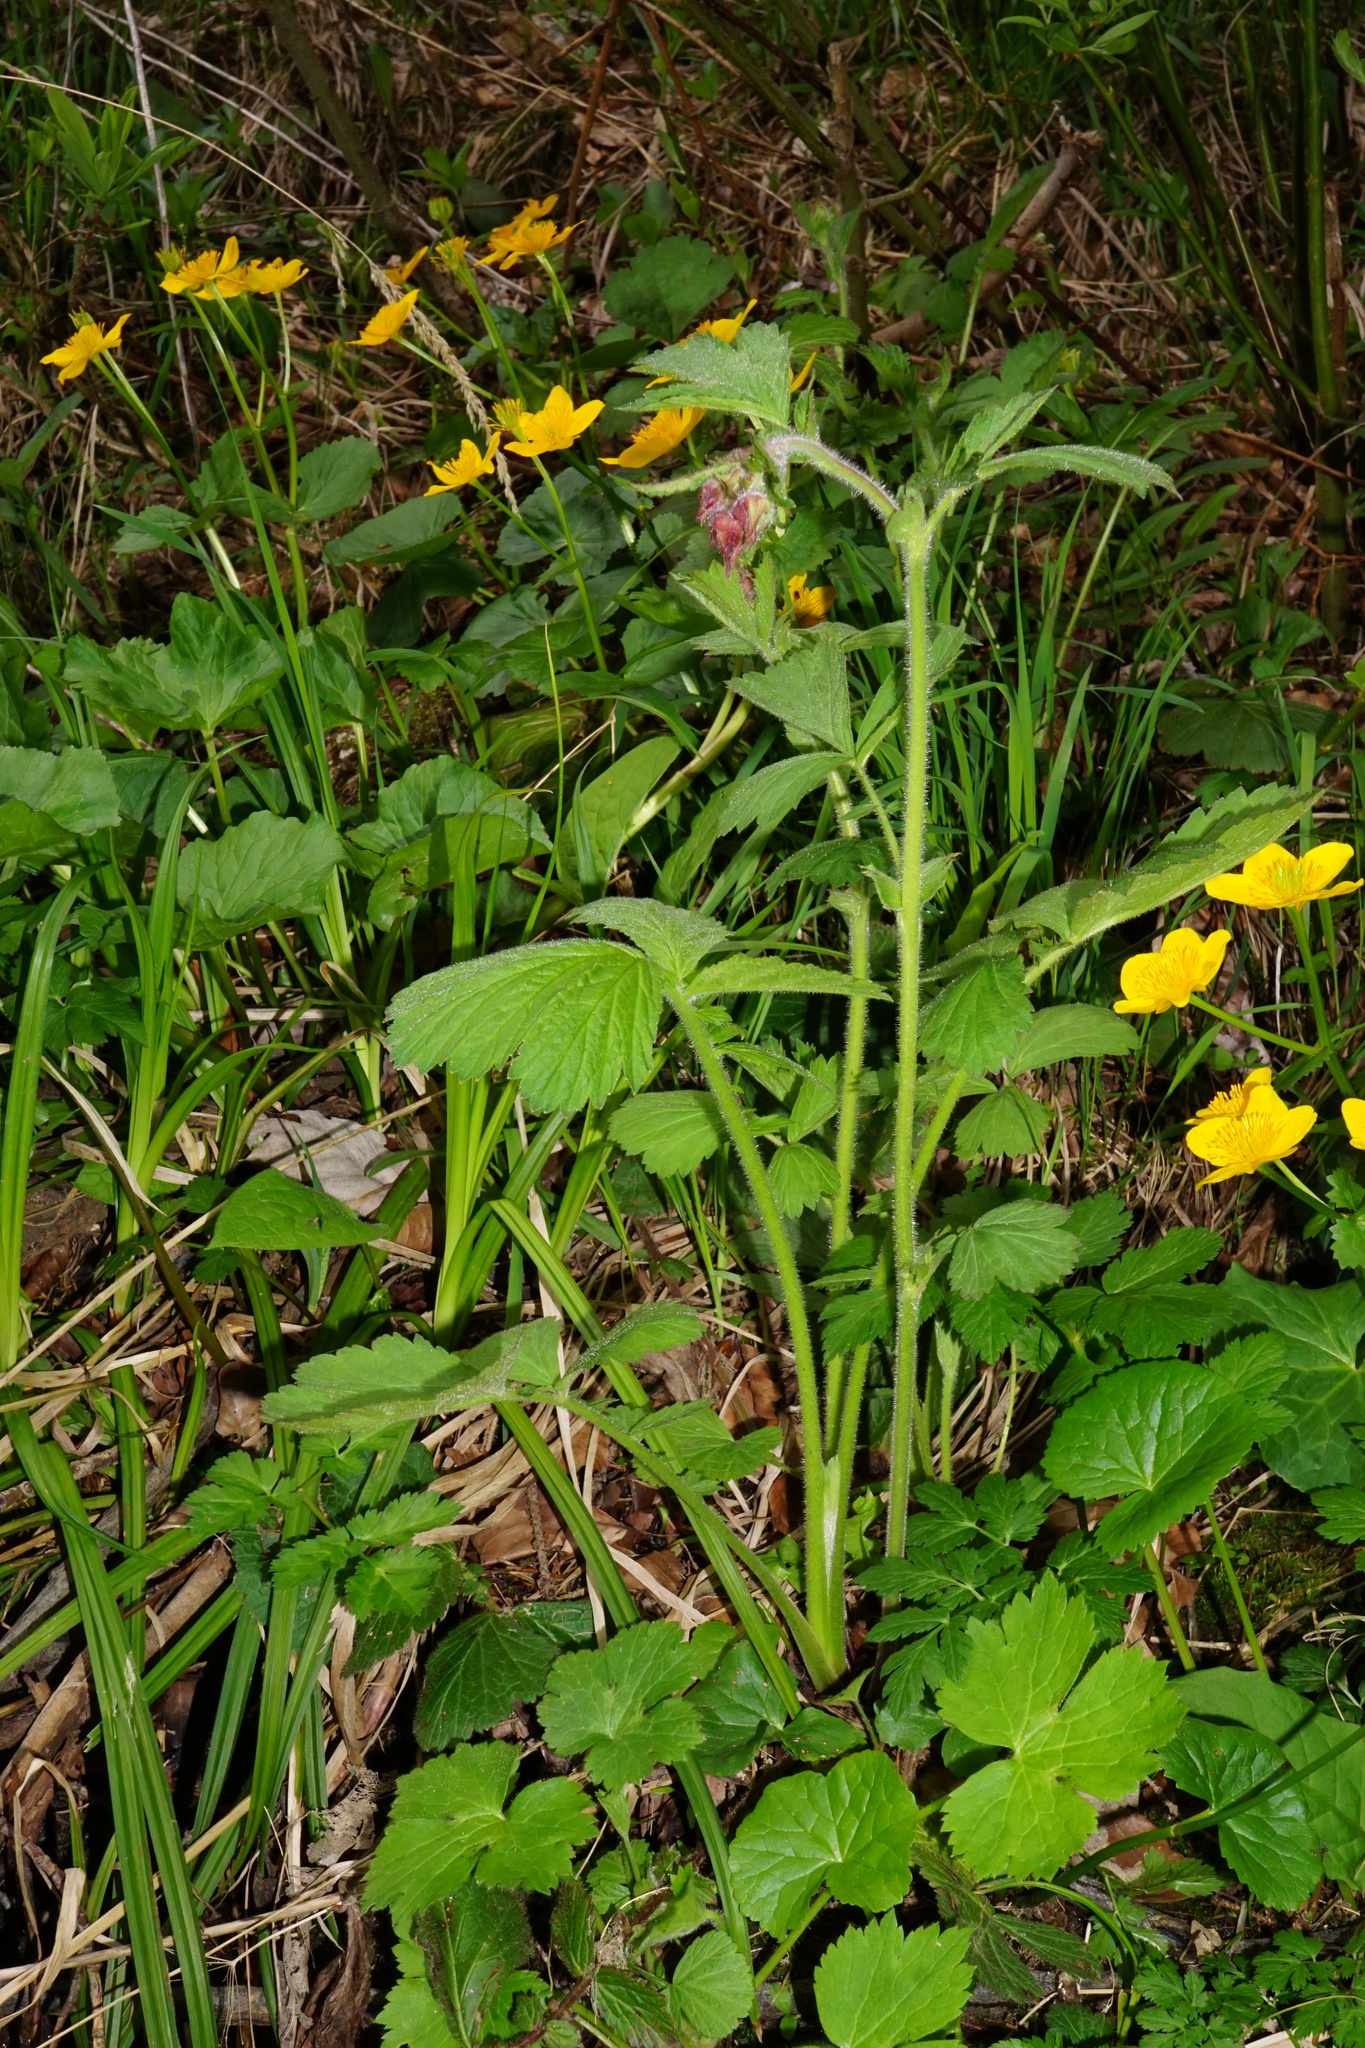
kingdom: Plantae
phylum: Tracheophyta
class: Magnoliopsida
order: Rosales
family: Rosaceae
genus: Geum
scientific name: Geum rivale
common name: Water avens
